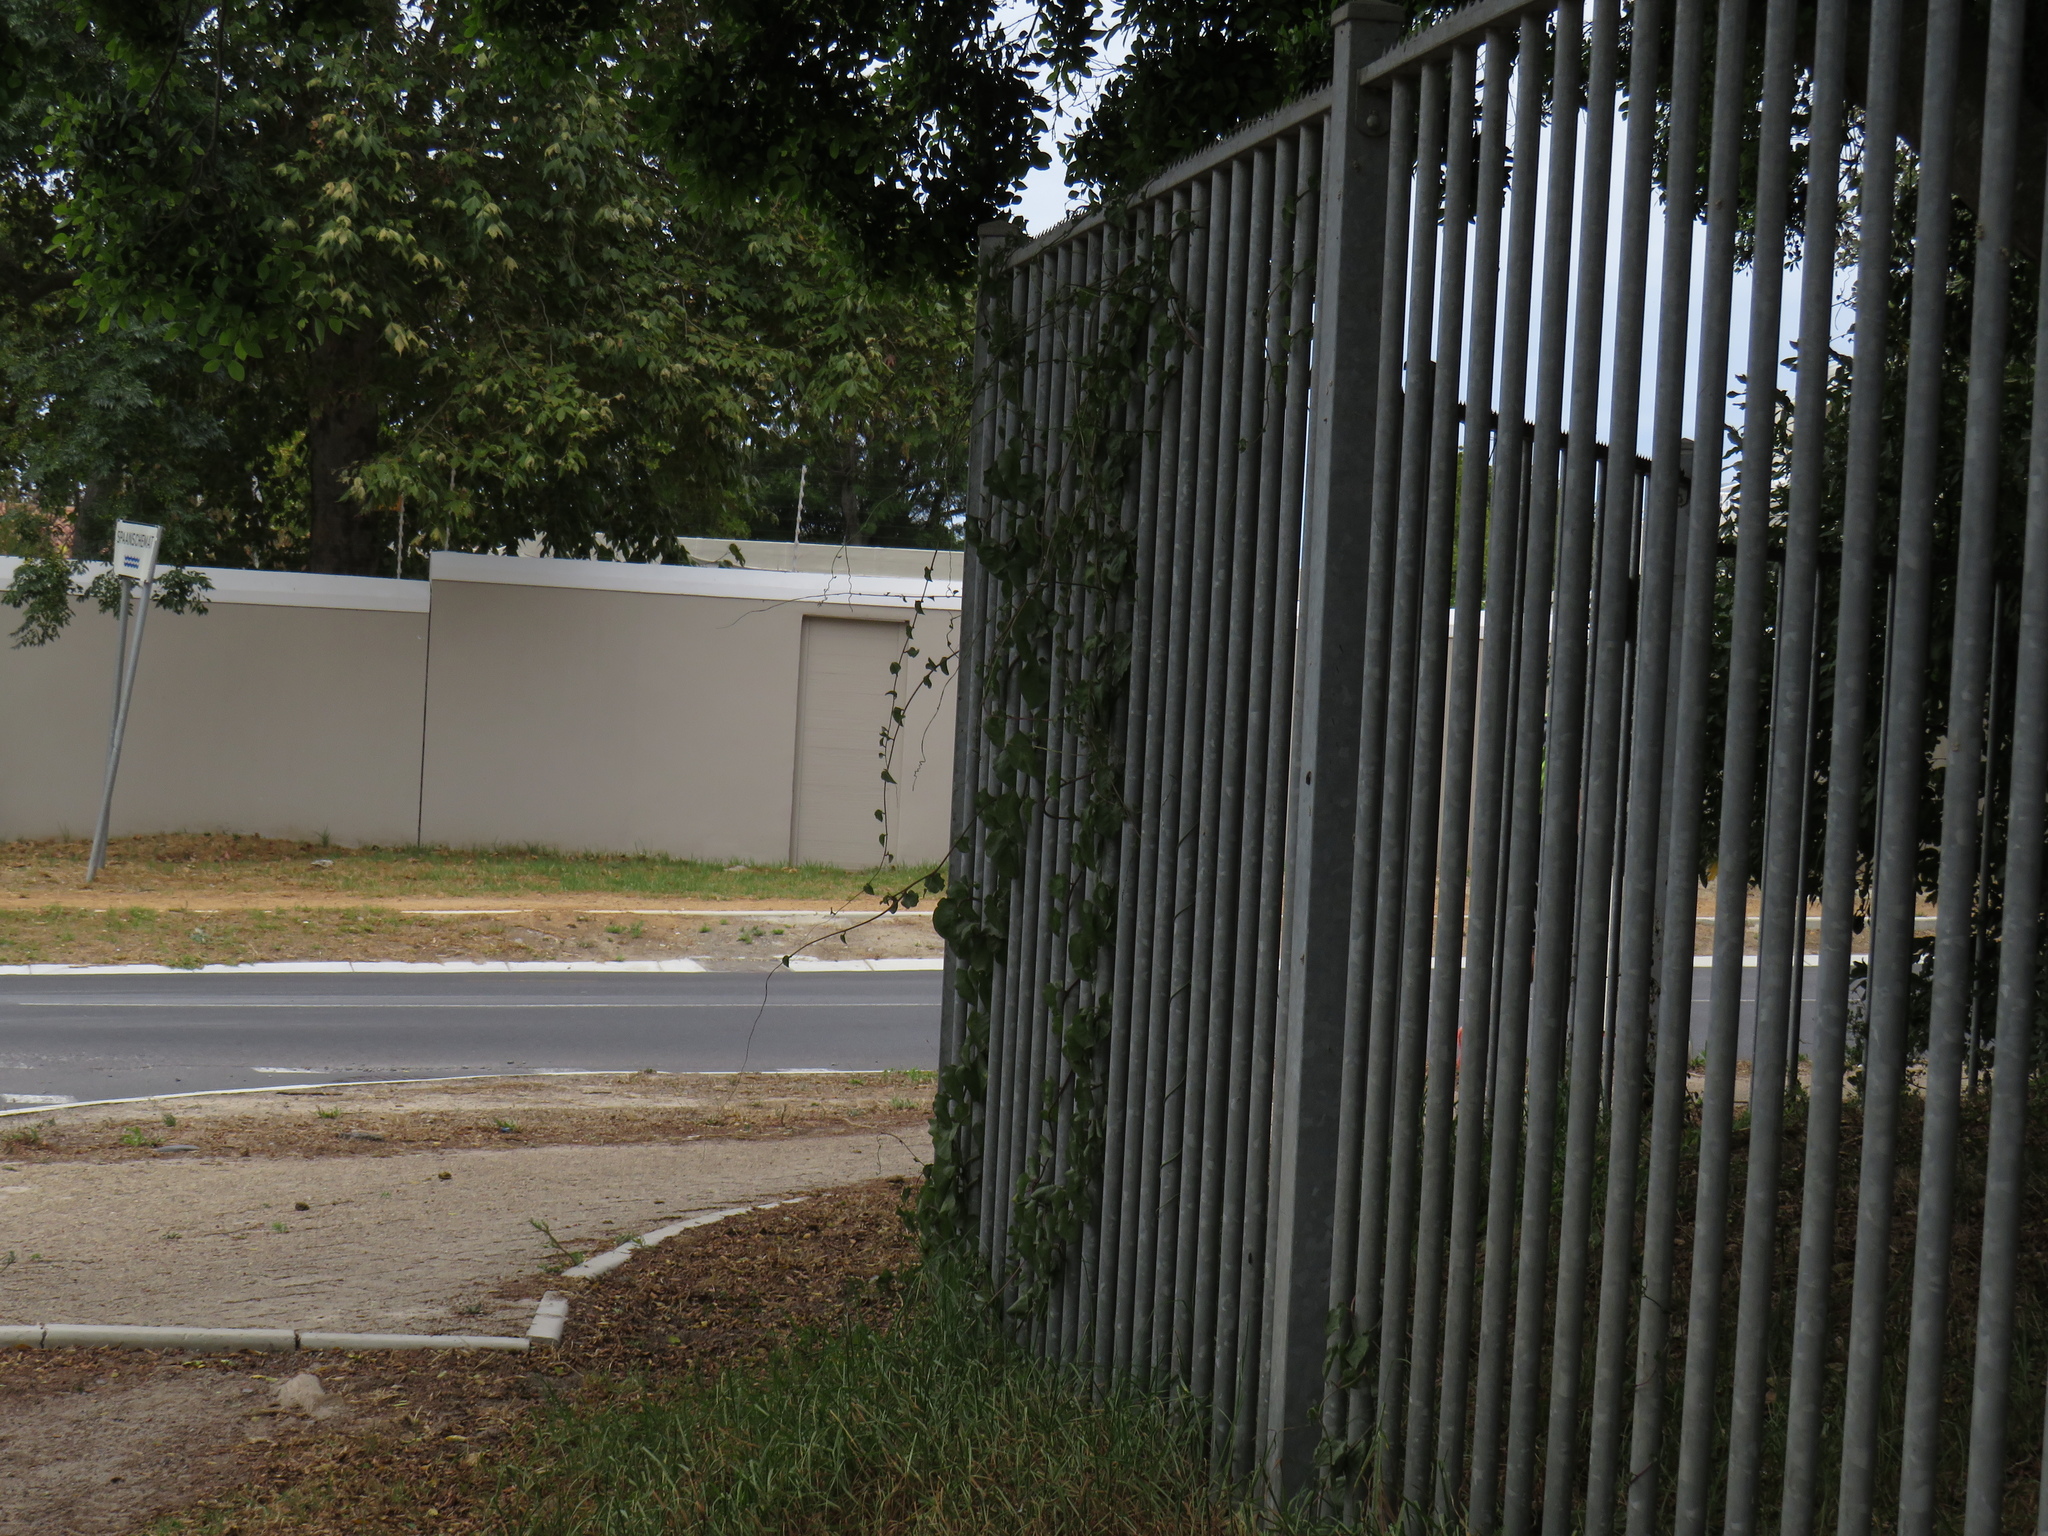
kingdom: Plantae
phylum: Tracheophyta
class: Magnoliopsida
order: Caryophyllales
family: Basellaceae
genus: Anredera
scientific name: Anredera cordifolia
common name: Heartleaf madeiravine
